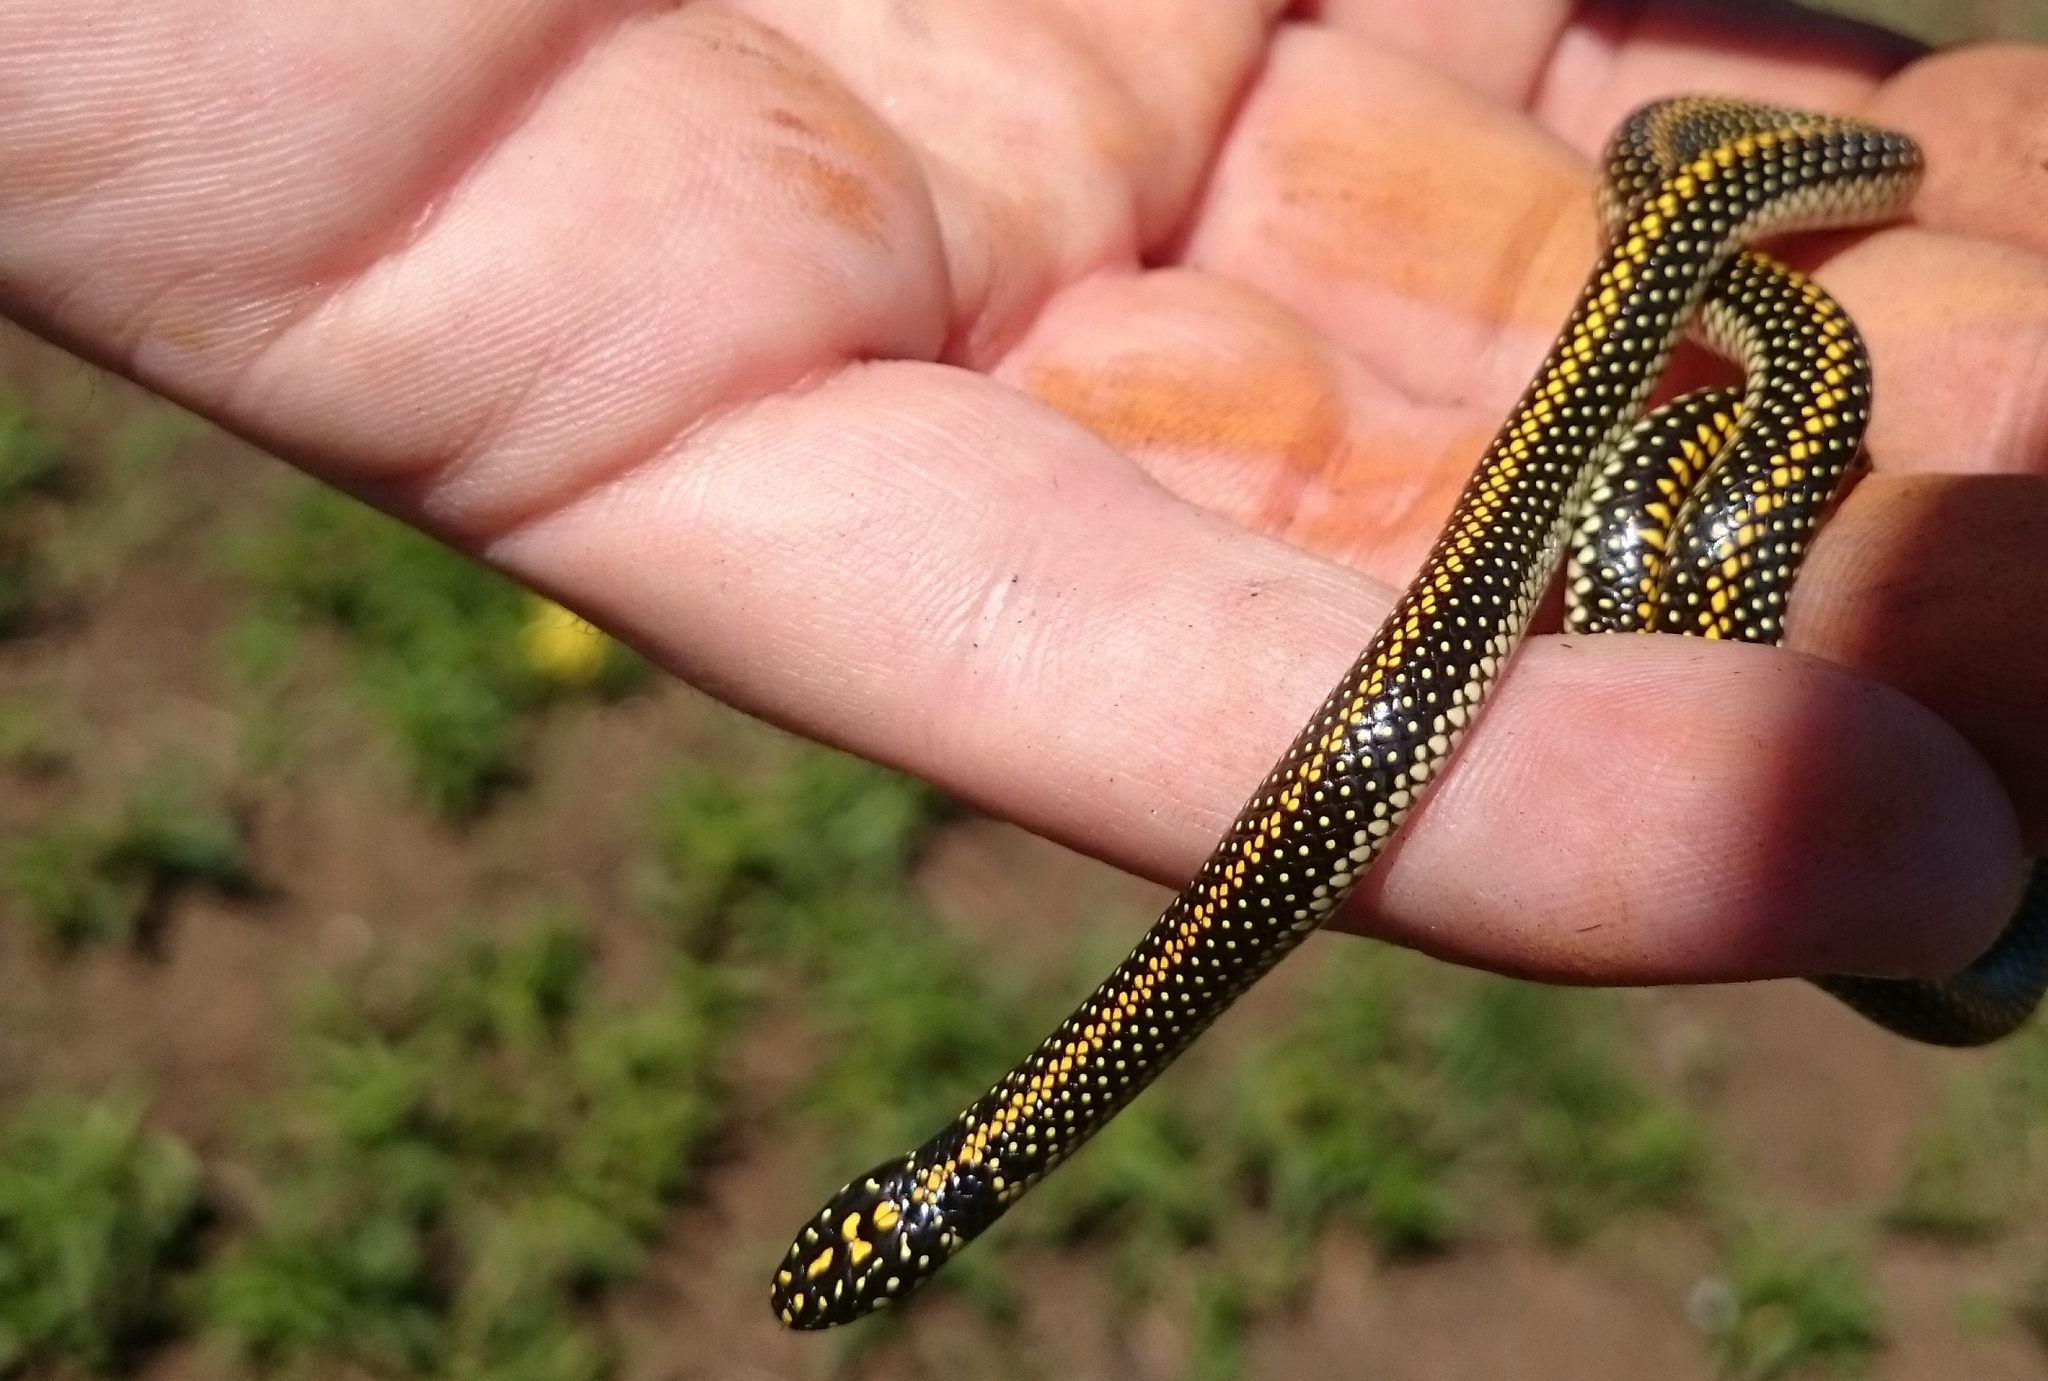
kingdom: Animalia
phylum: Chordata
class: Squamata
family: Atractaspididae
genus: Homoroselaps
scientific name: Homoroselaps lacteus
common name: Spotted harlequin snake
